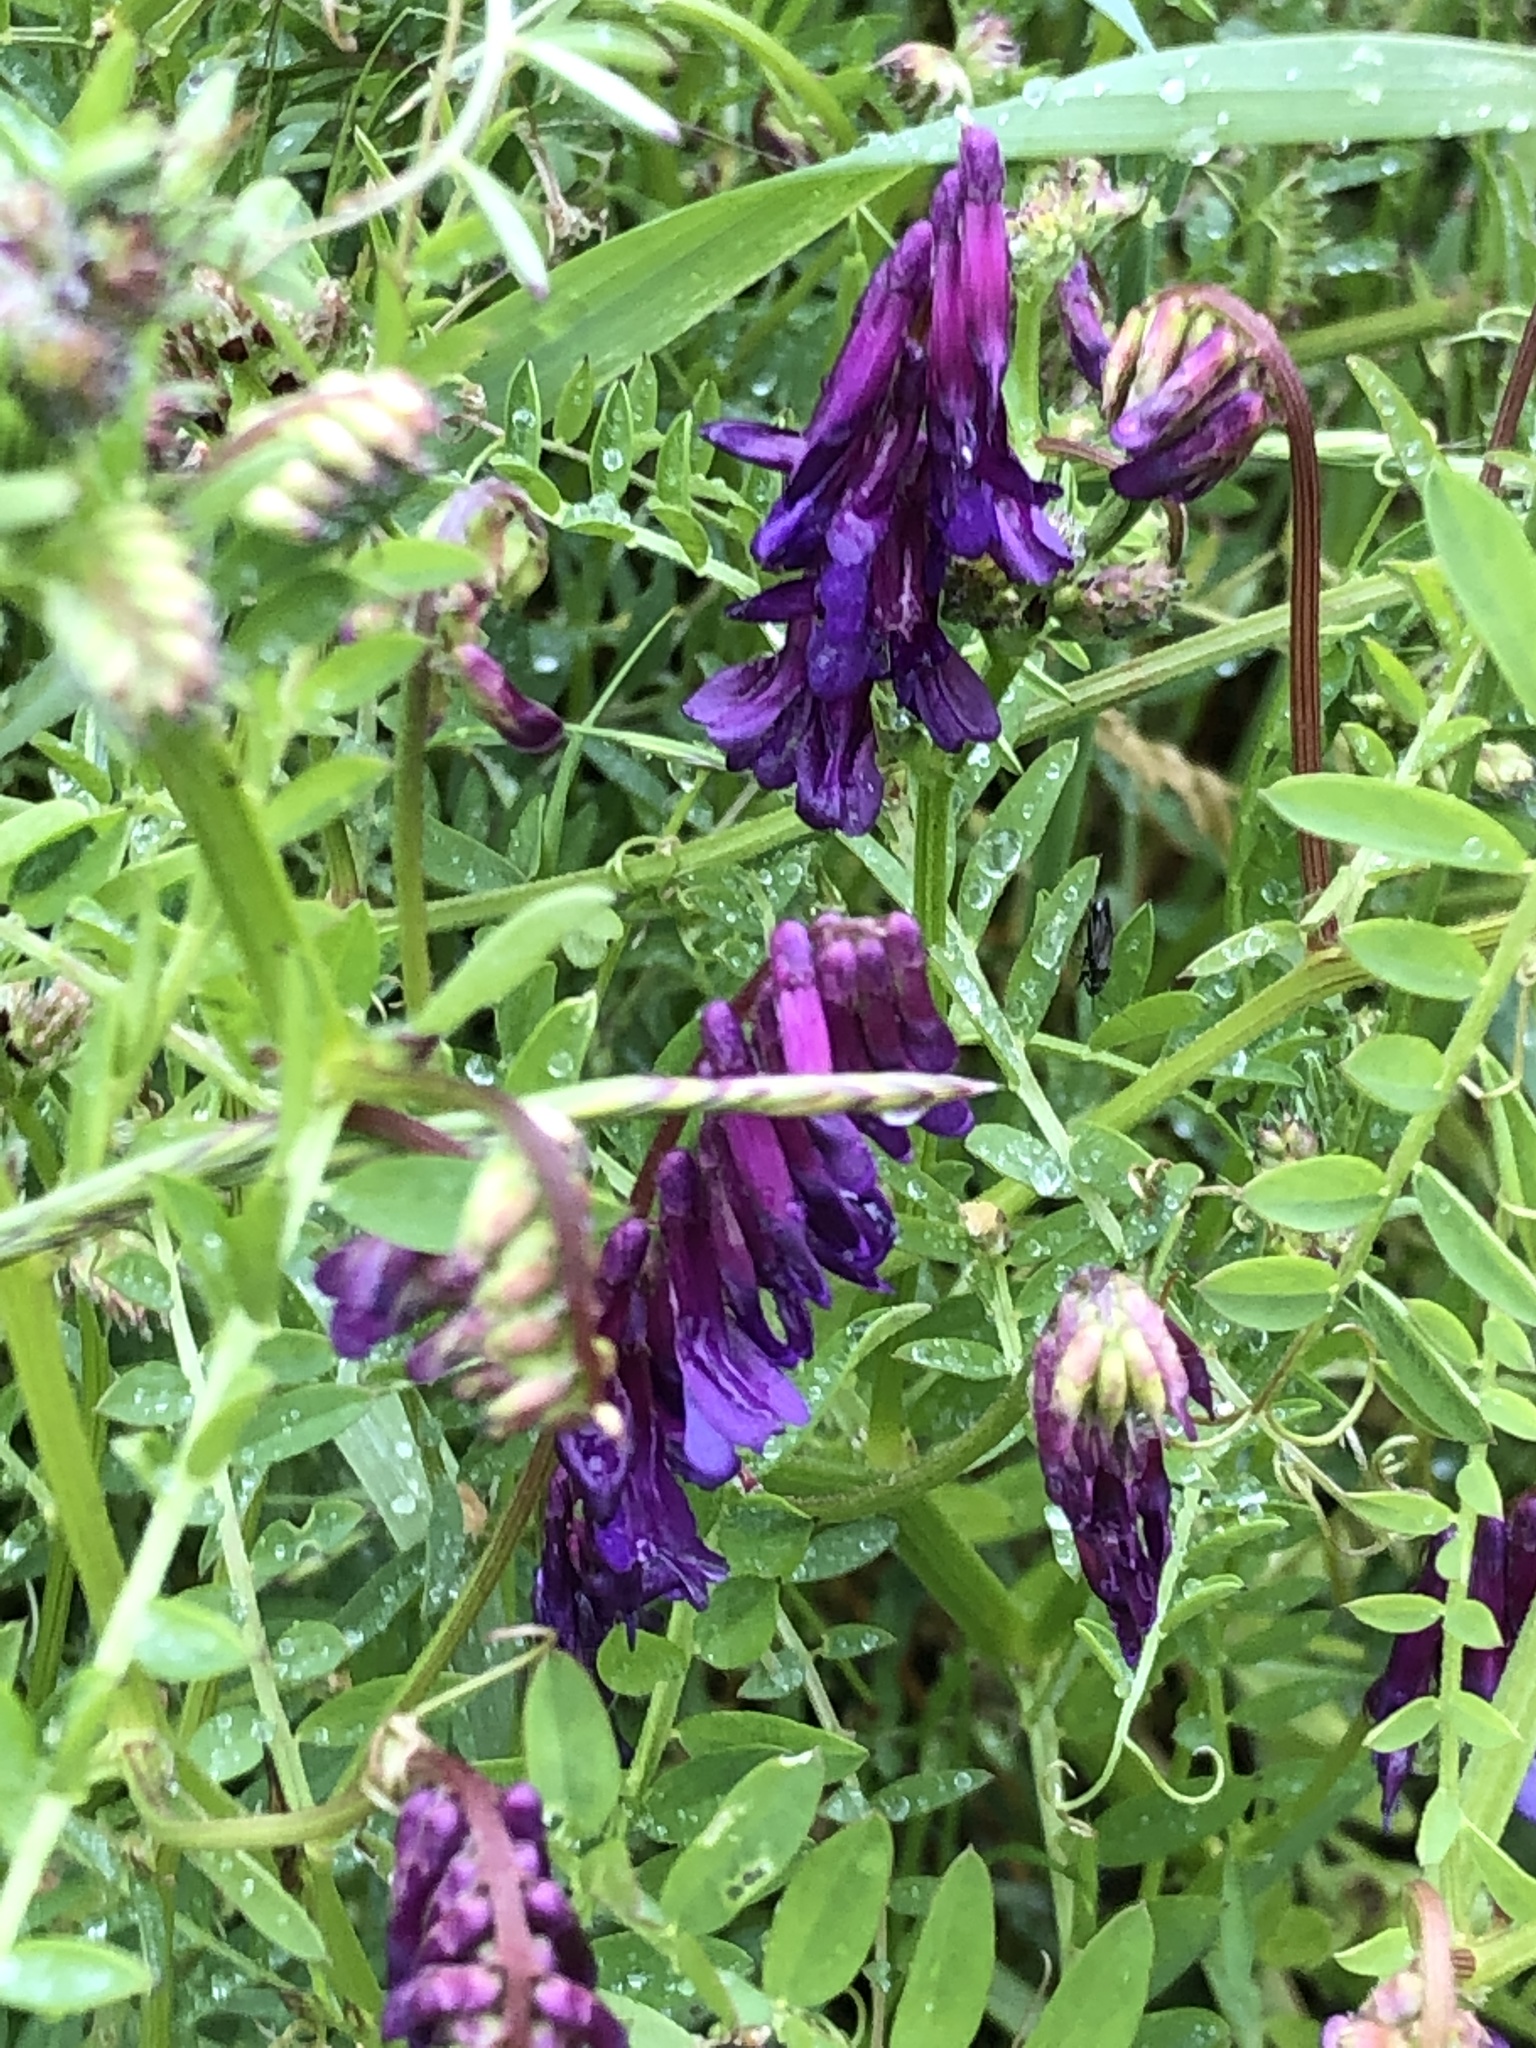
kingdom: Plantae
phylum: Tracheophyta
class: Magnoliopsida
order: Fabales
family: Fabaceae
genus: Vicia
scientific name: Vicia villosa
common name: Fodder vetch
